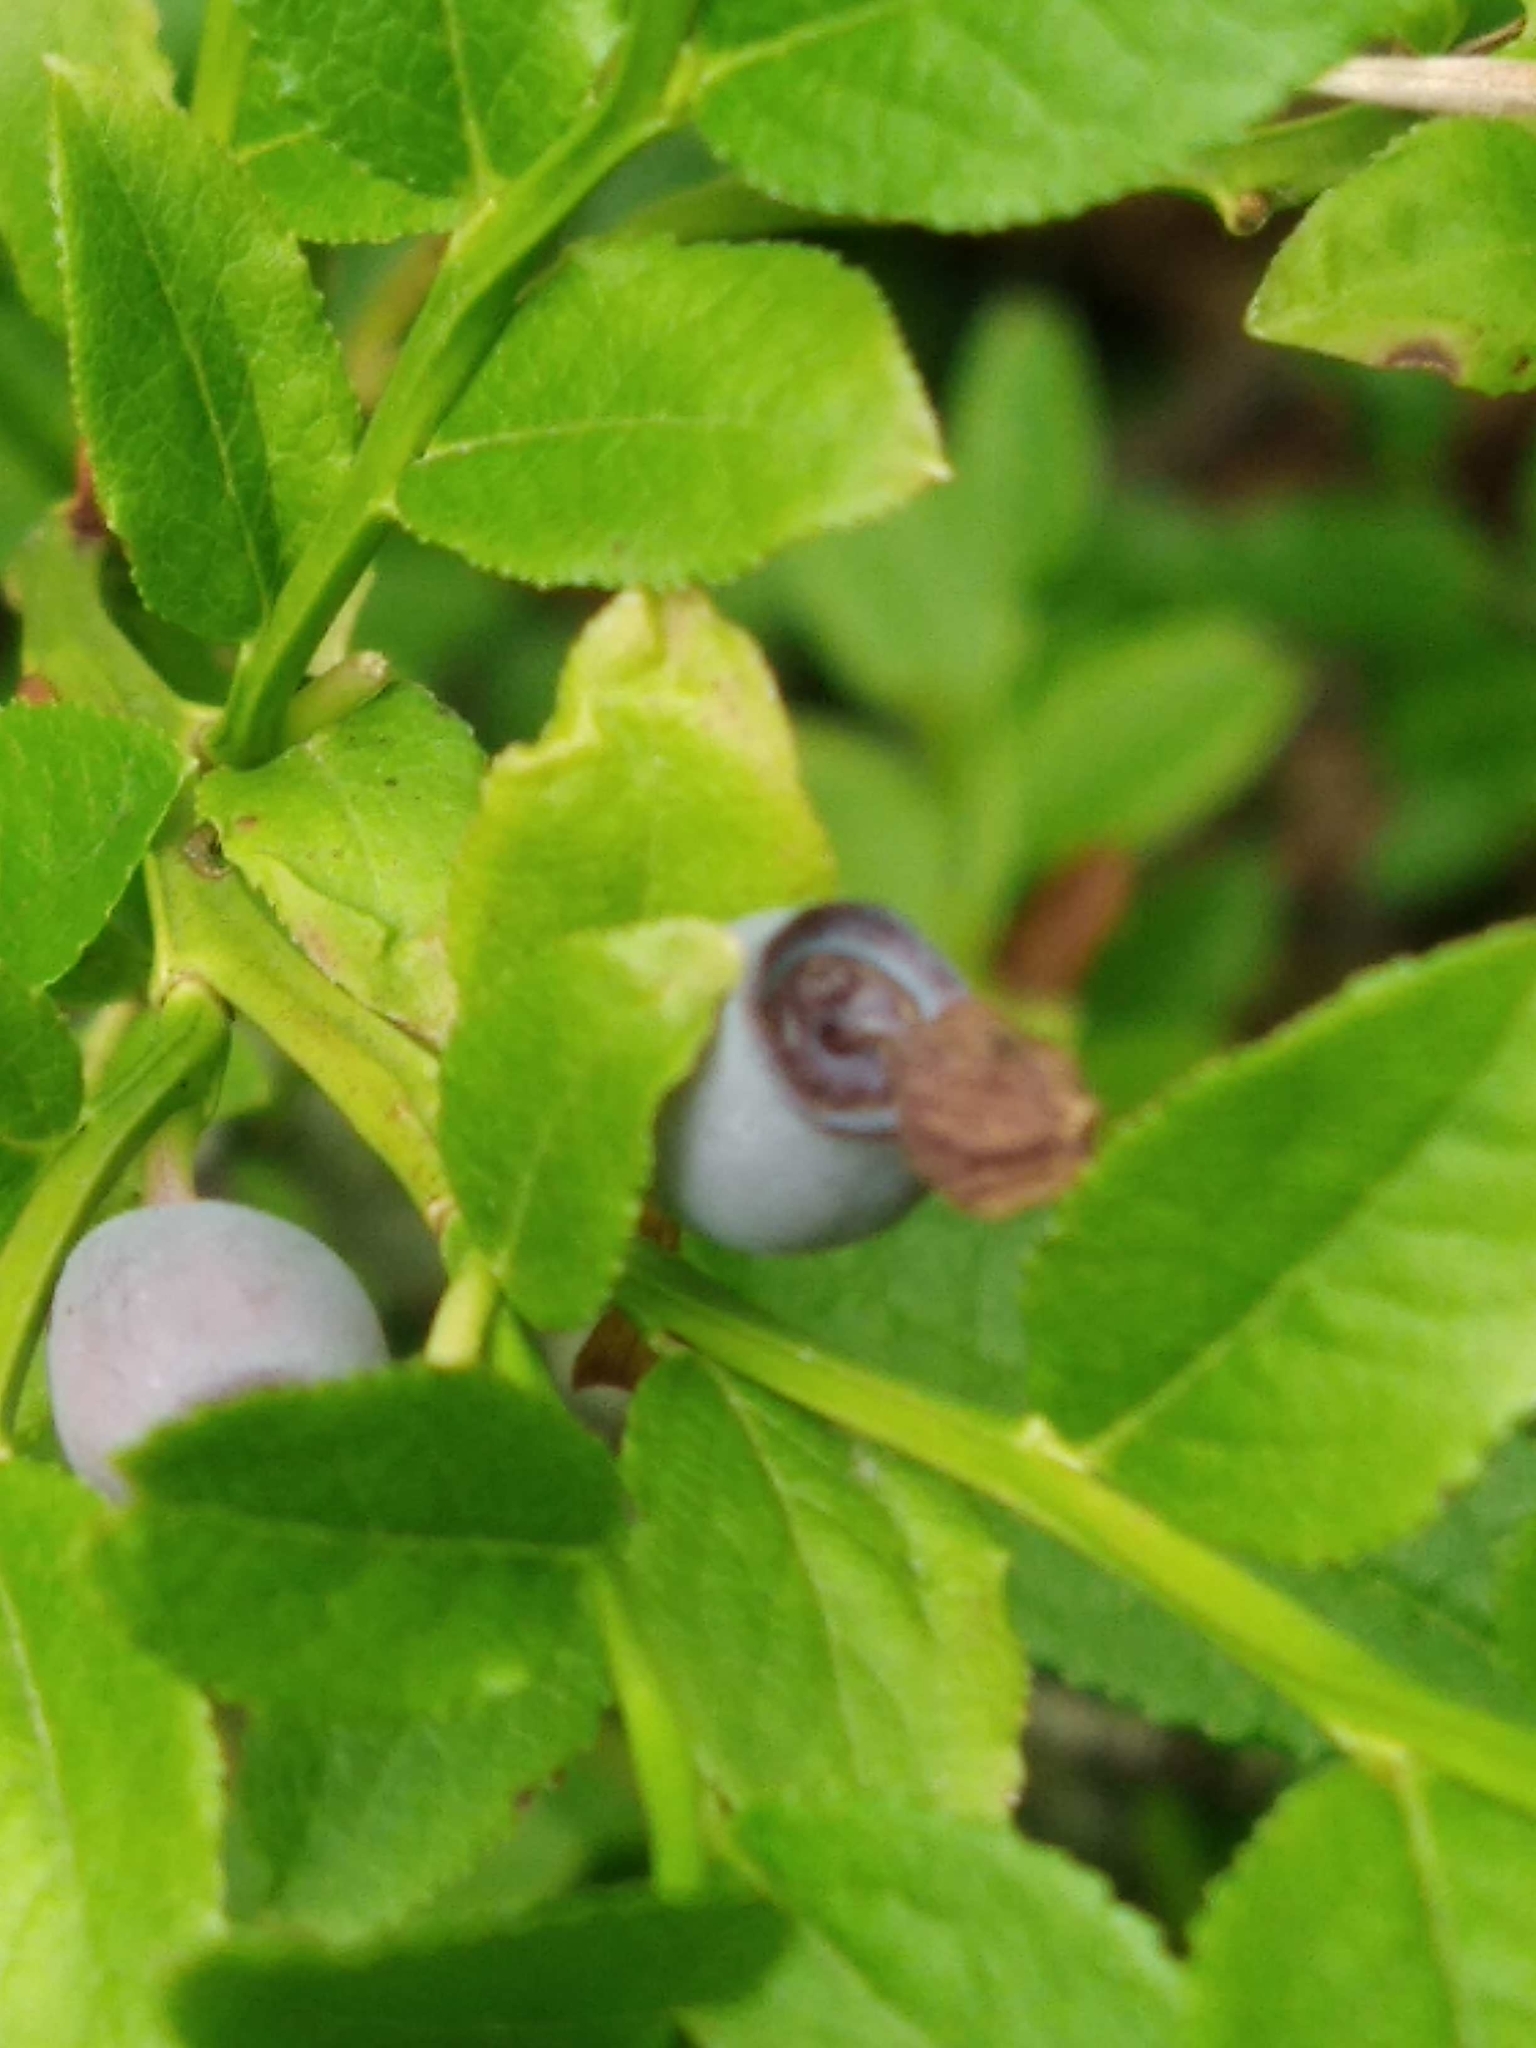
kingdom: Plantae
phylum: Tracheophyta
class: Magnoliopsida
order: Ericales
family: Ericaceae
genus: Vaccinium
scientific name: Vaccinium myrtillus
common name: Bilberry
